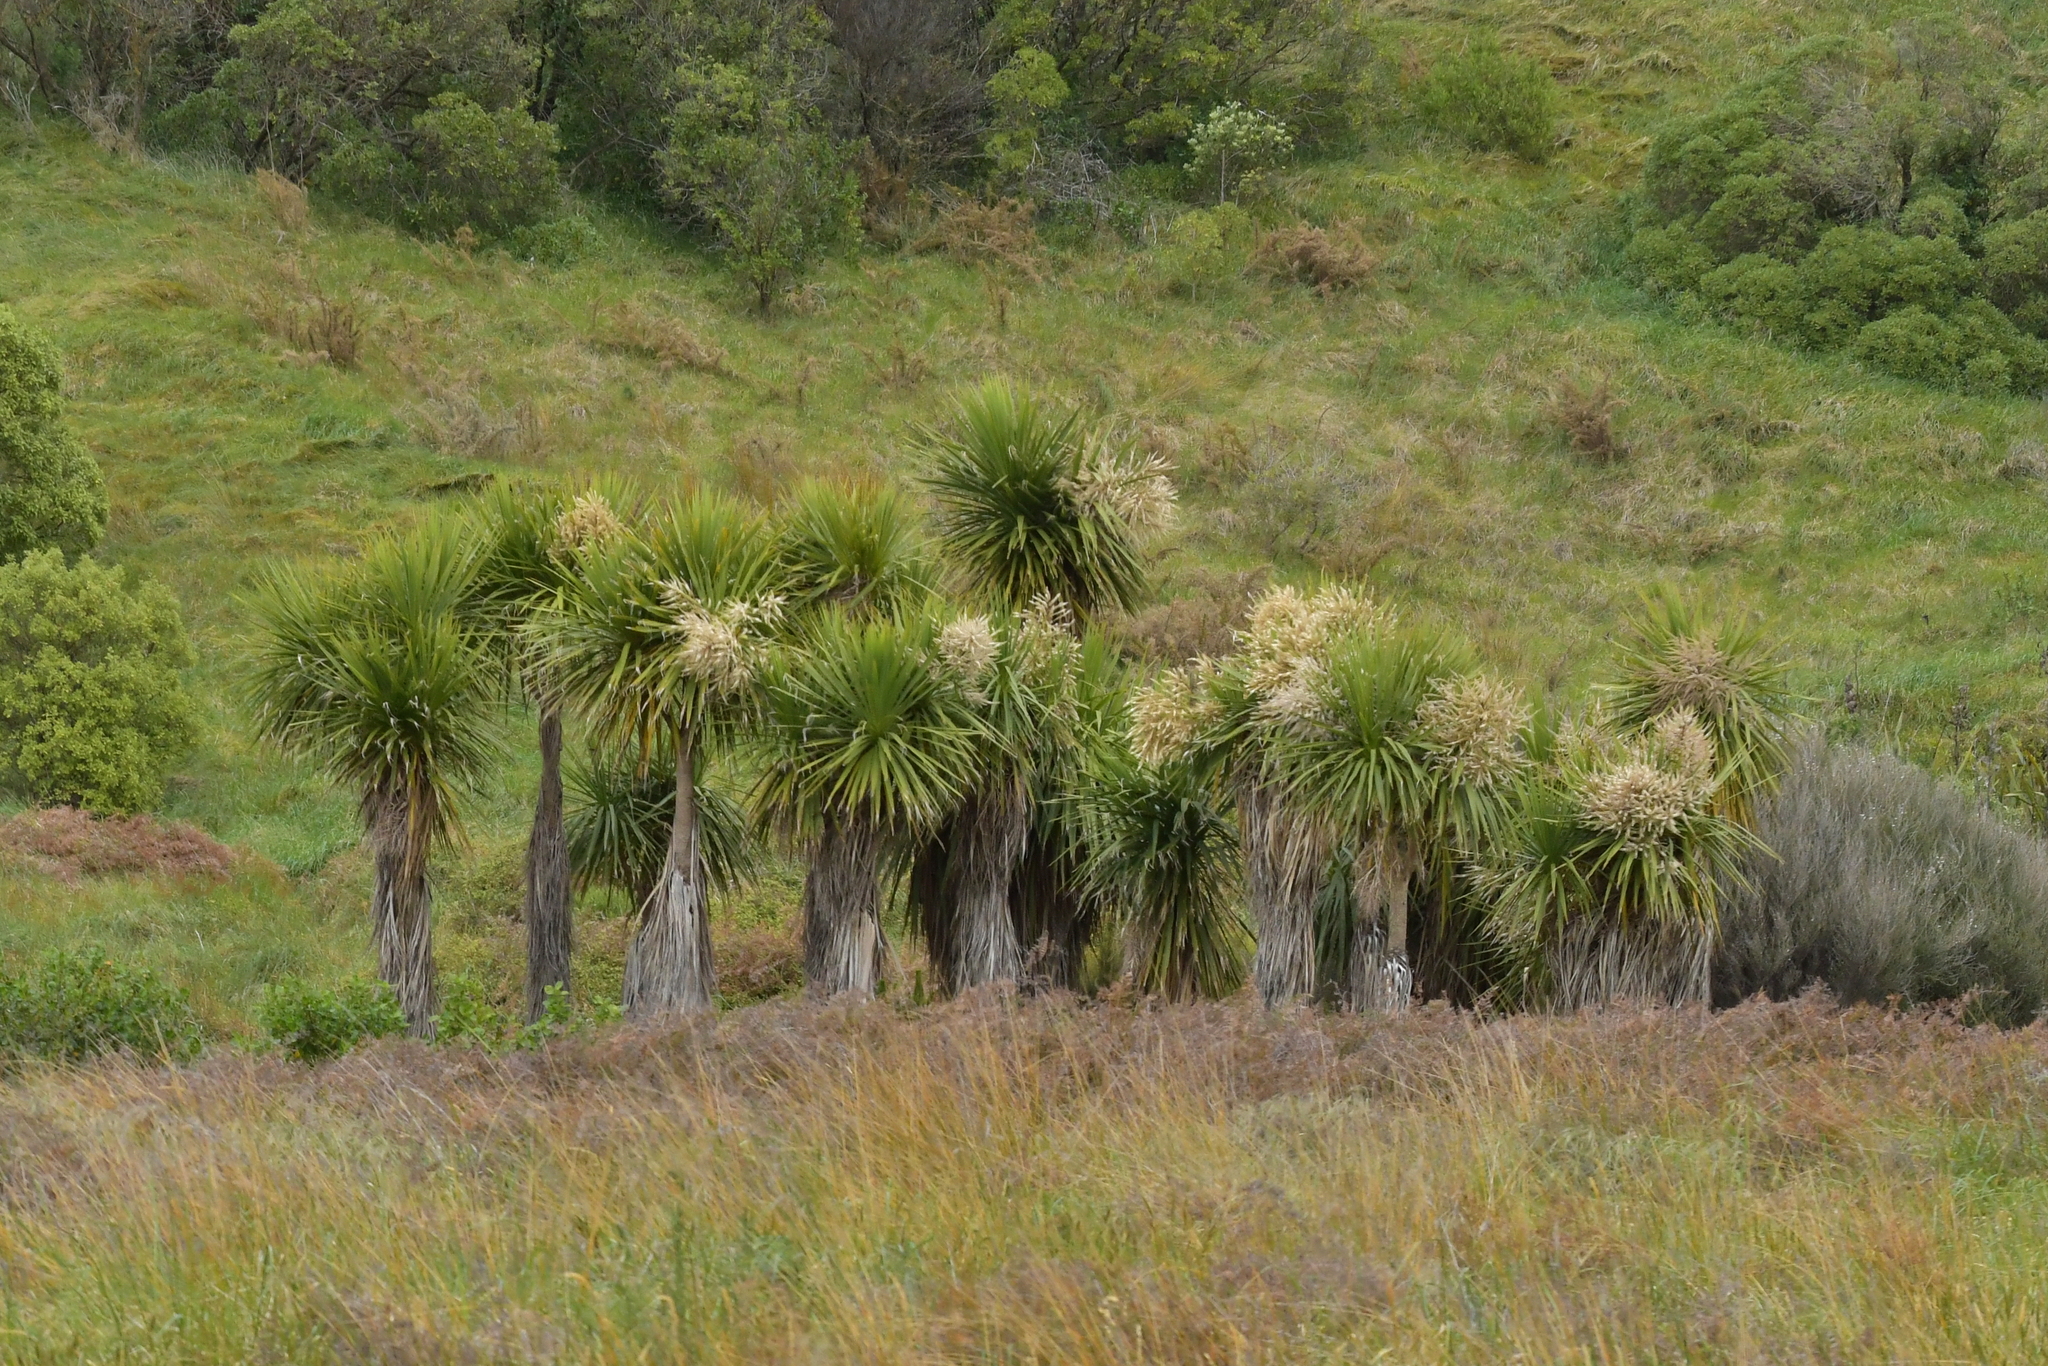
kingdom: Plantae
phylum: Tracheophyta
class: Liliopsida
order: Asparagales
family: Asparagaceae
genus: Cordyline
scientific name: Cordyline australis
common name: Cabbage-palm
